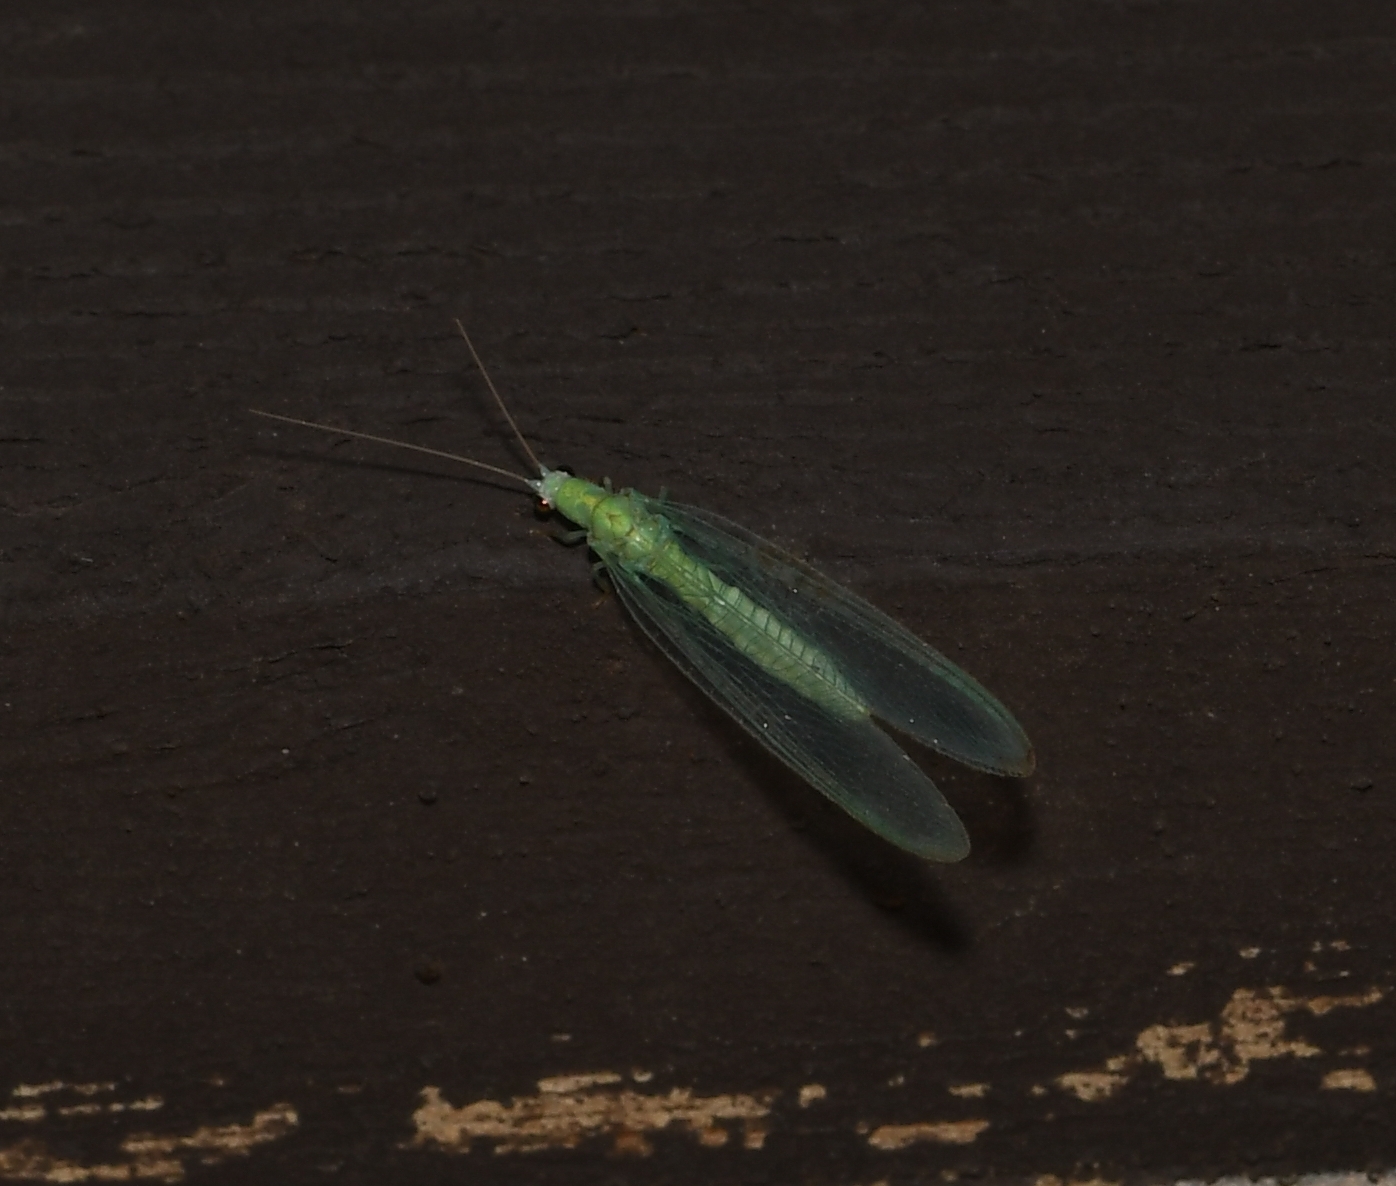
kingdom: Animalia
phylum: Arthropoda
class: Insecta
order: Neuroptera
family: Chrysopidae
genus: Chrysopa
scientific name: Chrysopa nigricornis
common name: Black-horned green lacewing
